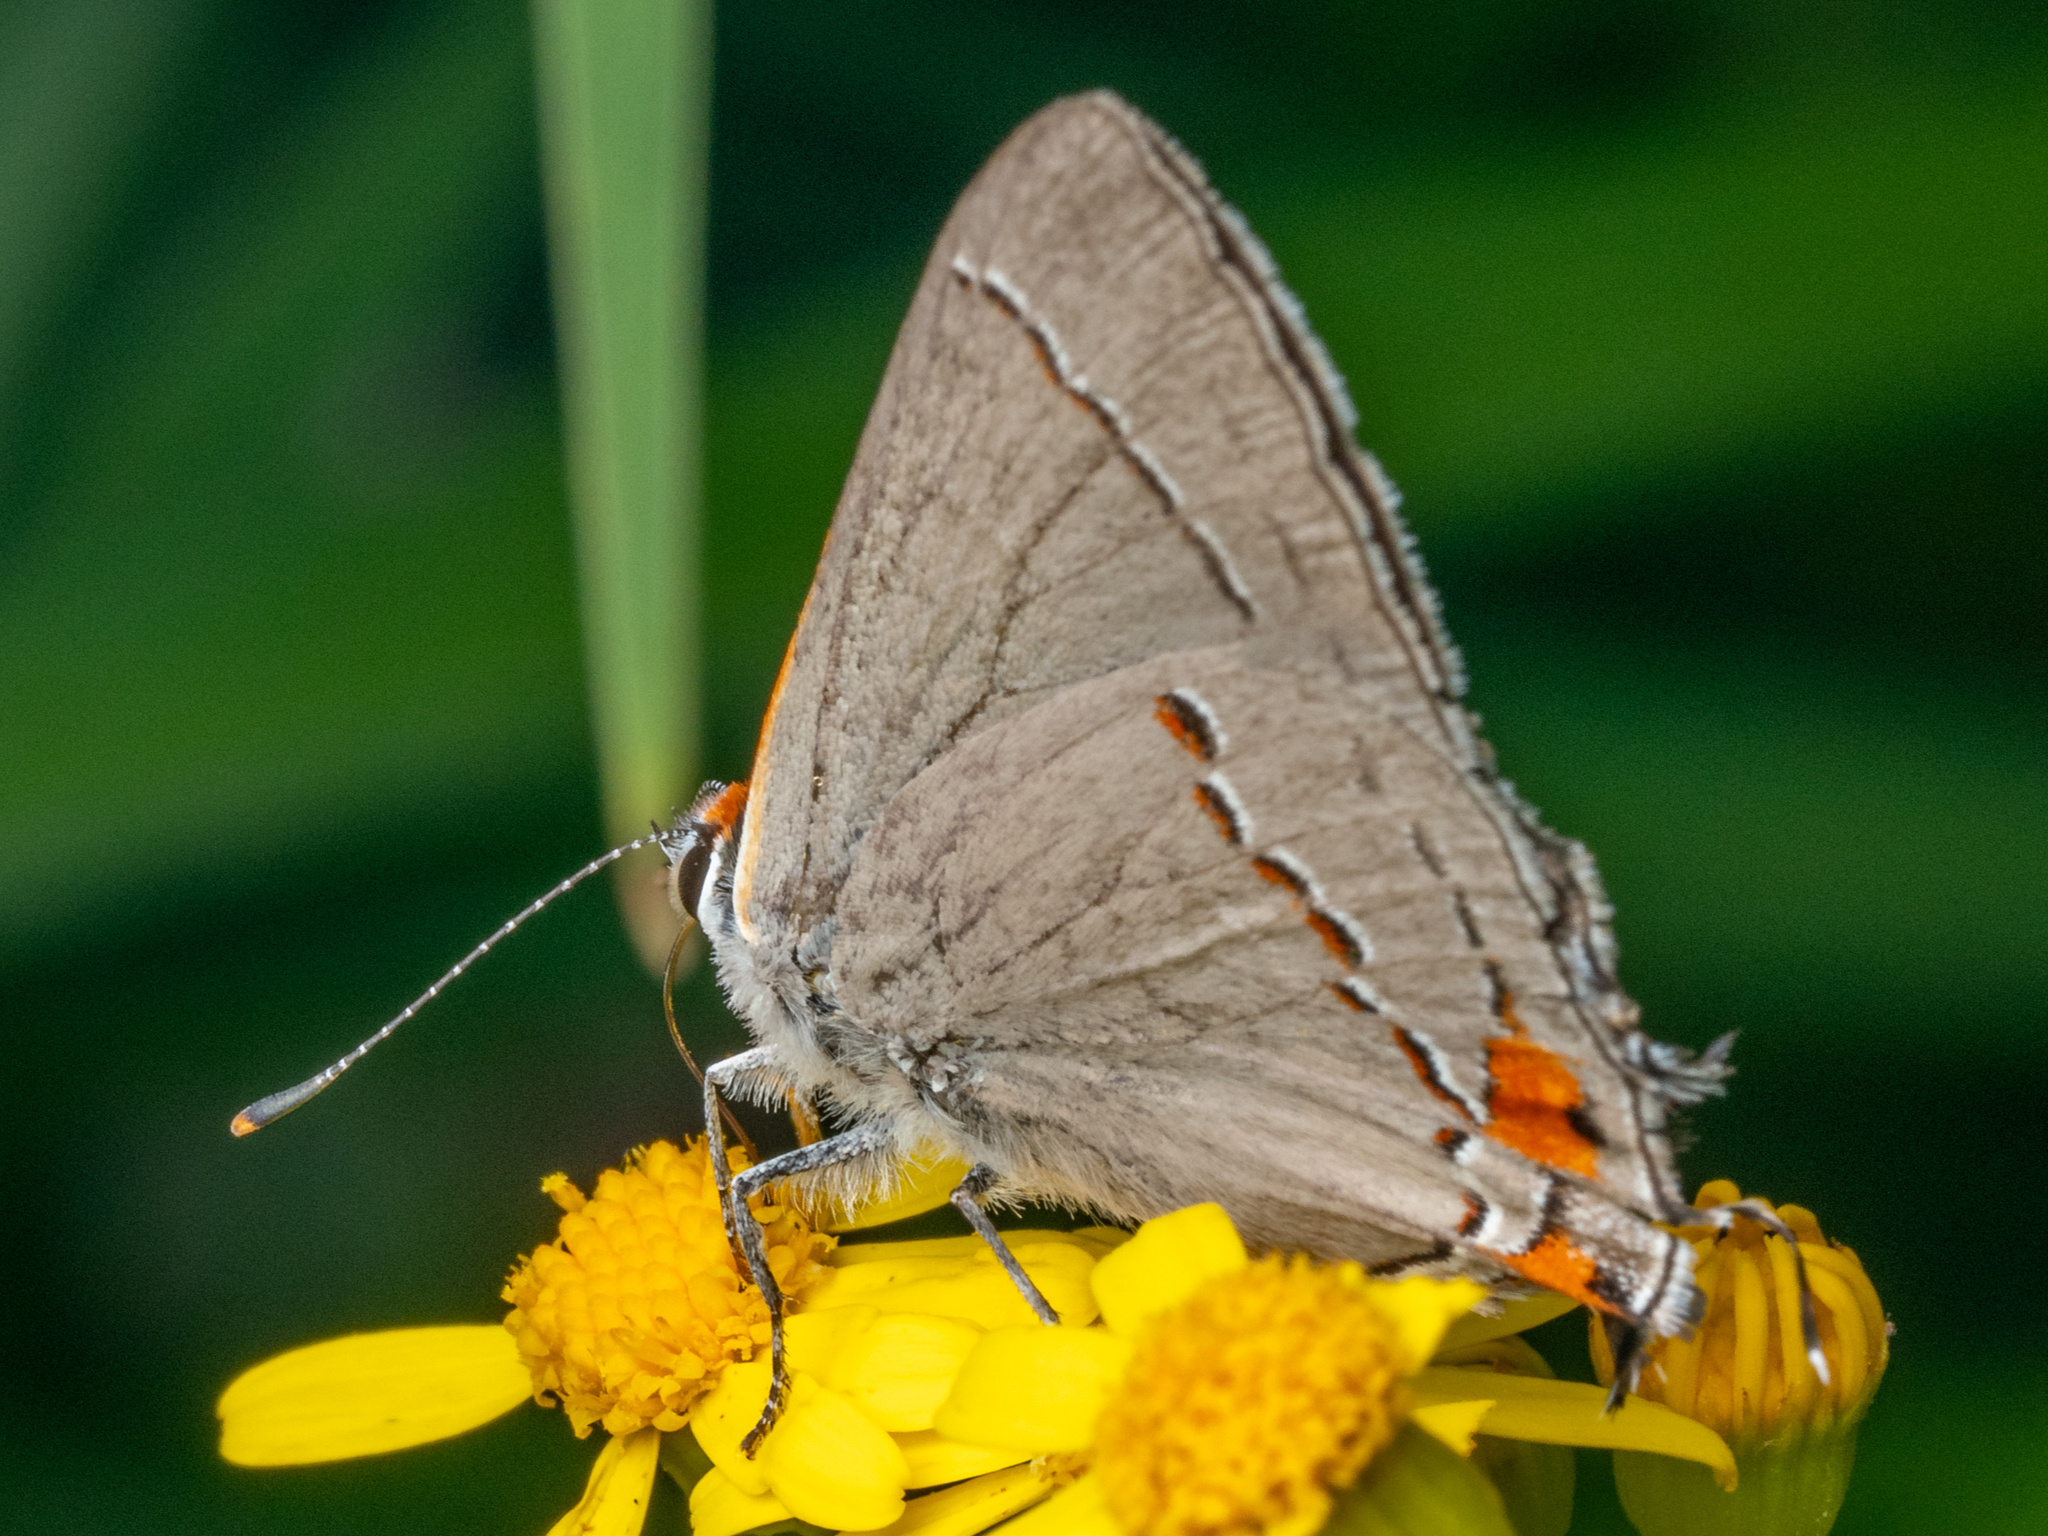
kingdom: Animalia
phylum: Arthropoda
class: Insecta
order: Lepidoptera
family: Lycaenidae
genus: Strymon
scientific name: Strymon melinus
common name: Gray hairstreak
